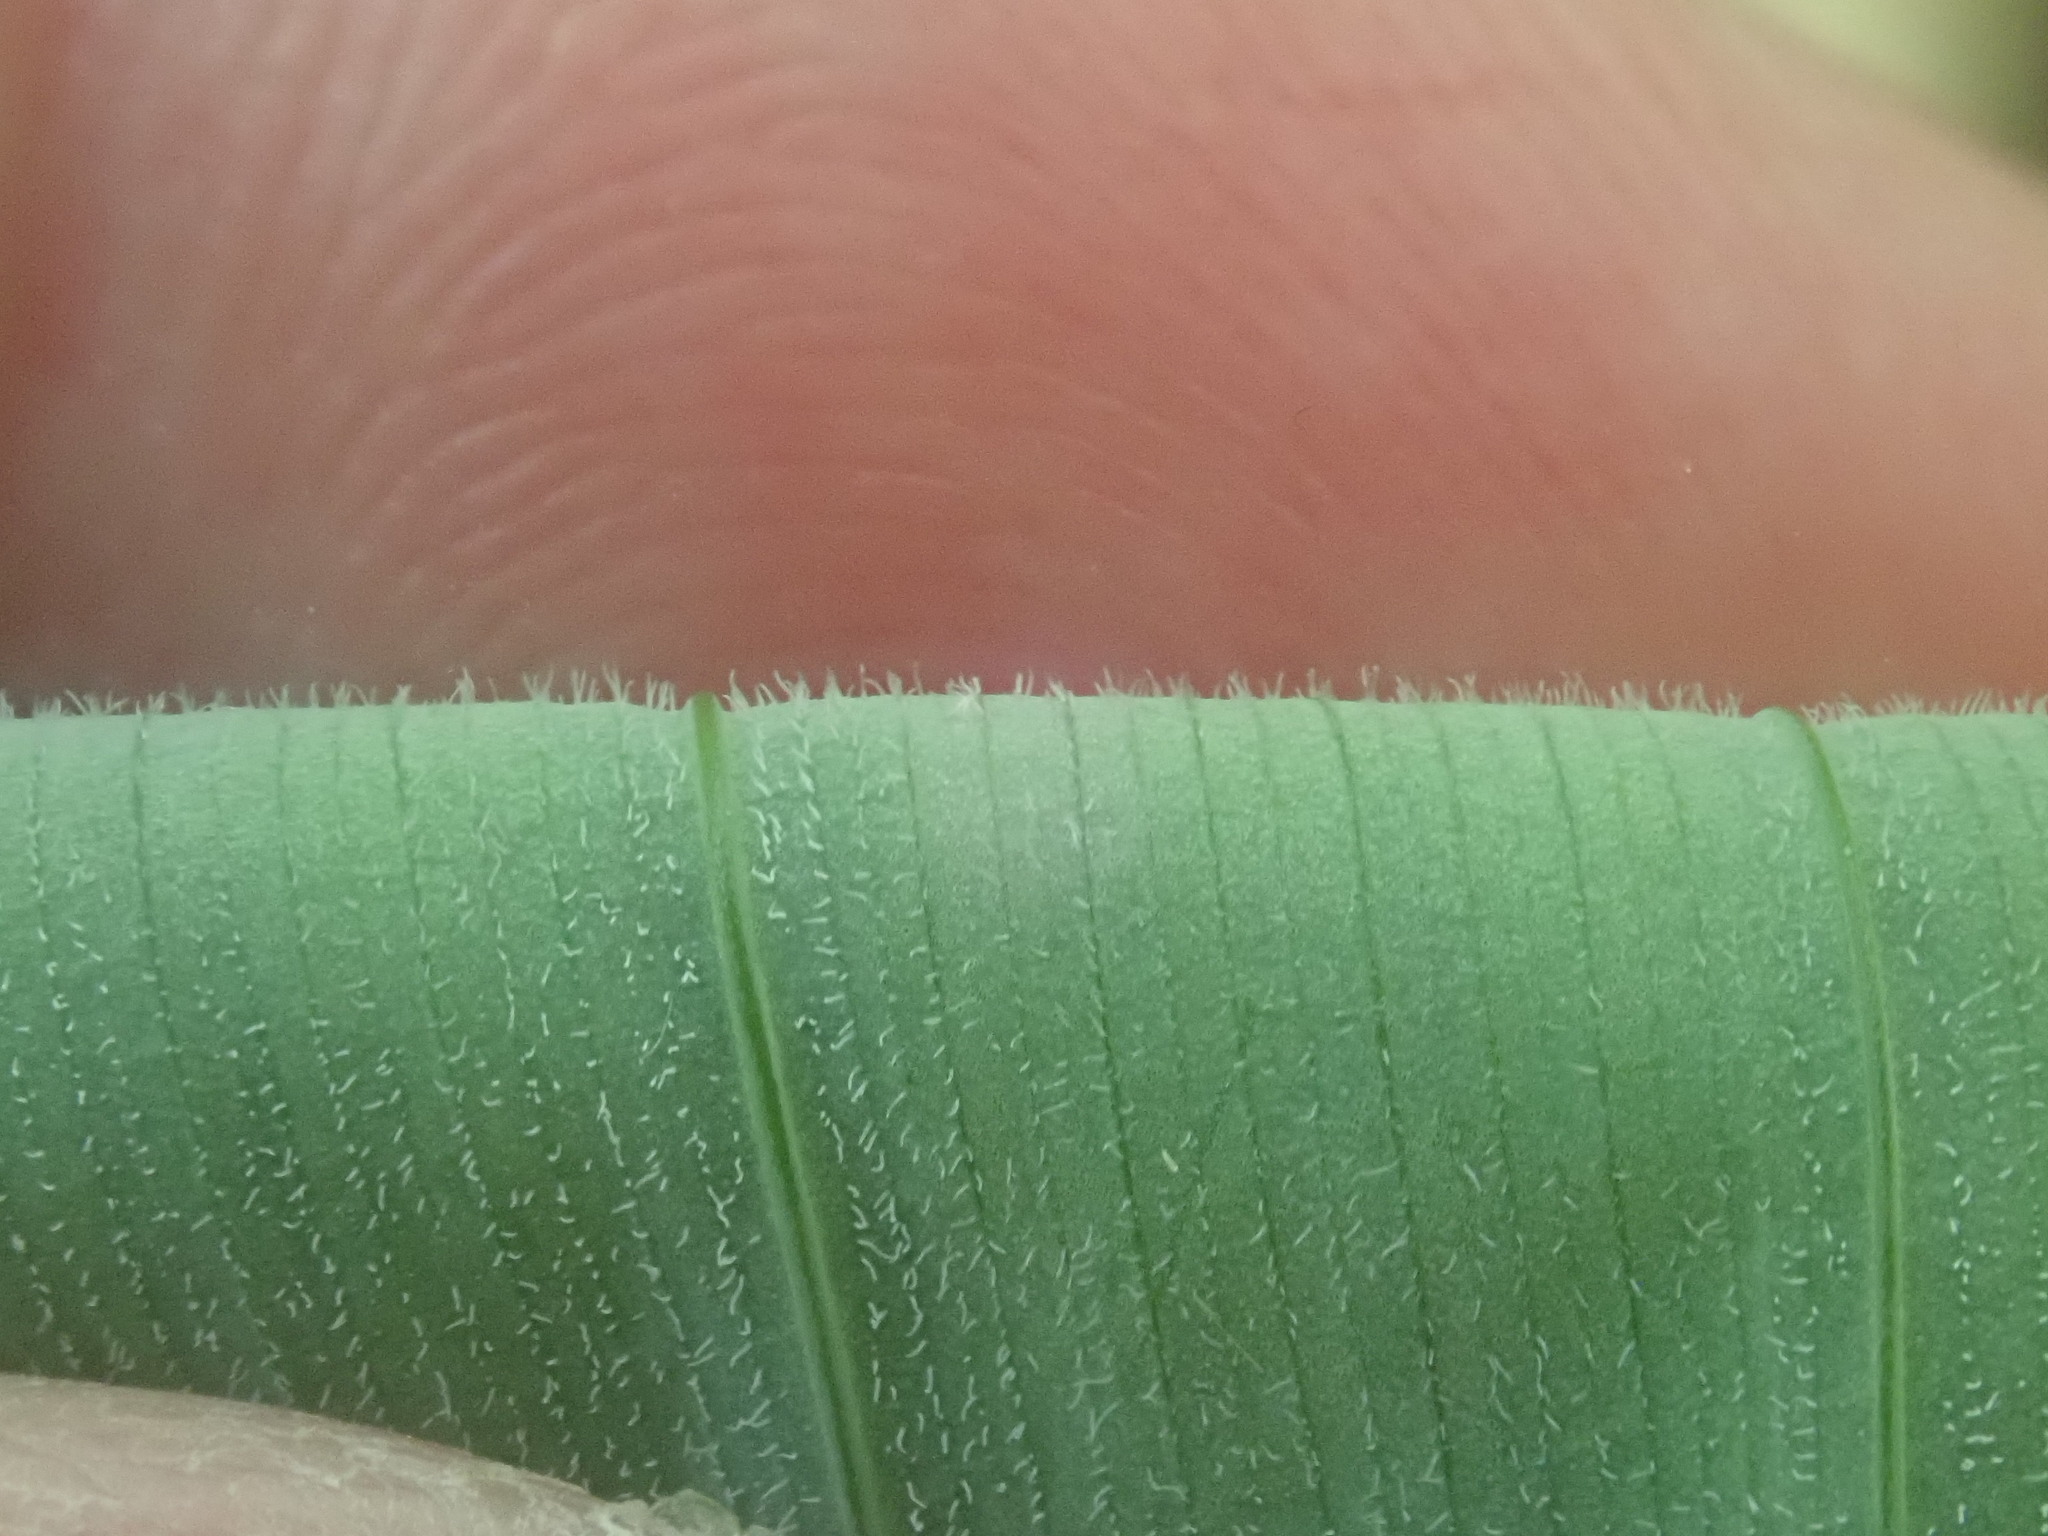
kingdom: Plantae
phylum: Tracheophyta
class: Liliopsida
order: Asparagales
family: Asparagaceae
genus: Polygonatum
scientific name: Polygonatum pubescens
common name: Downy solomon's seal
